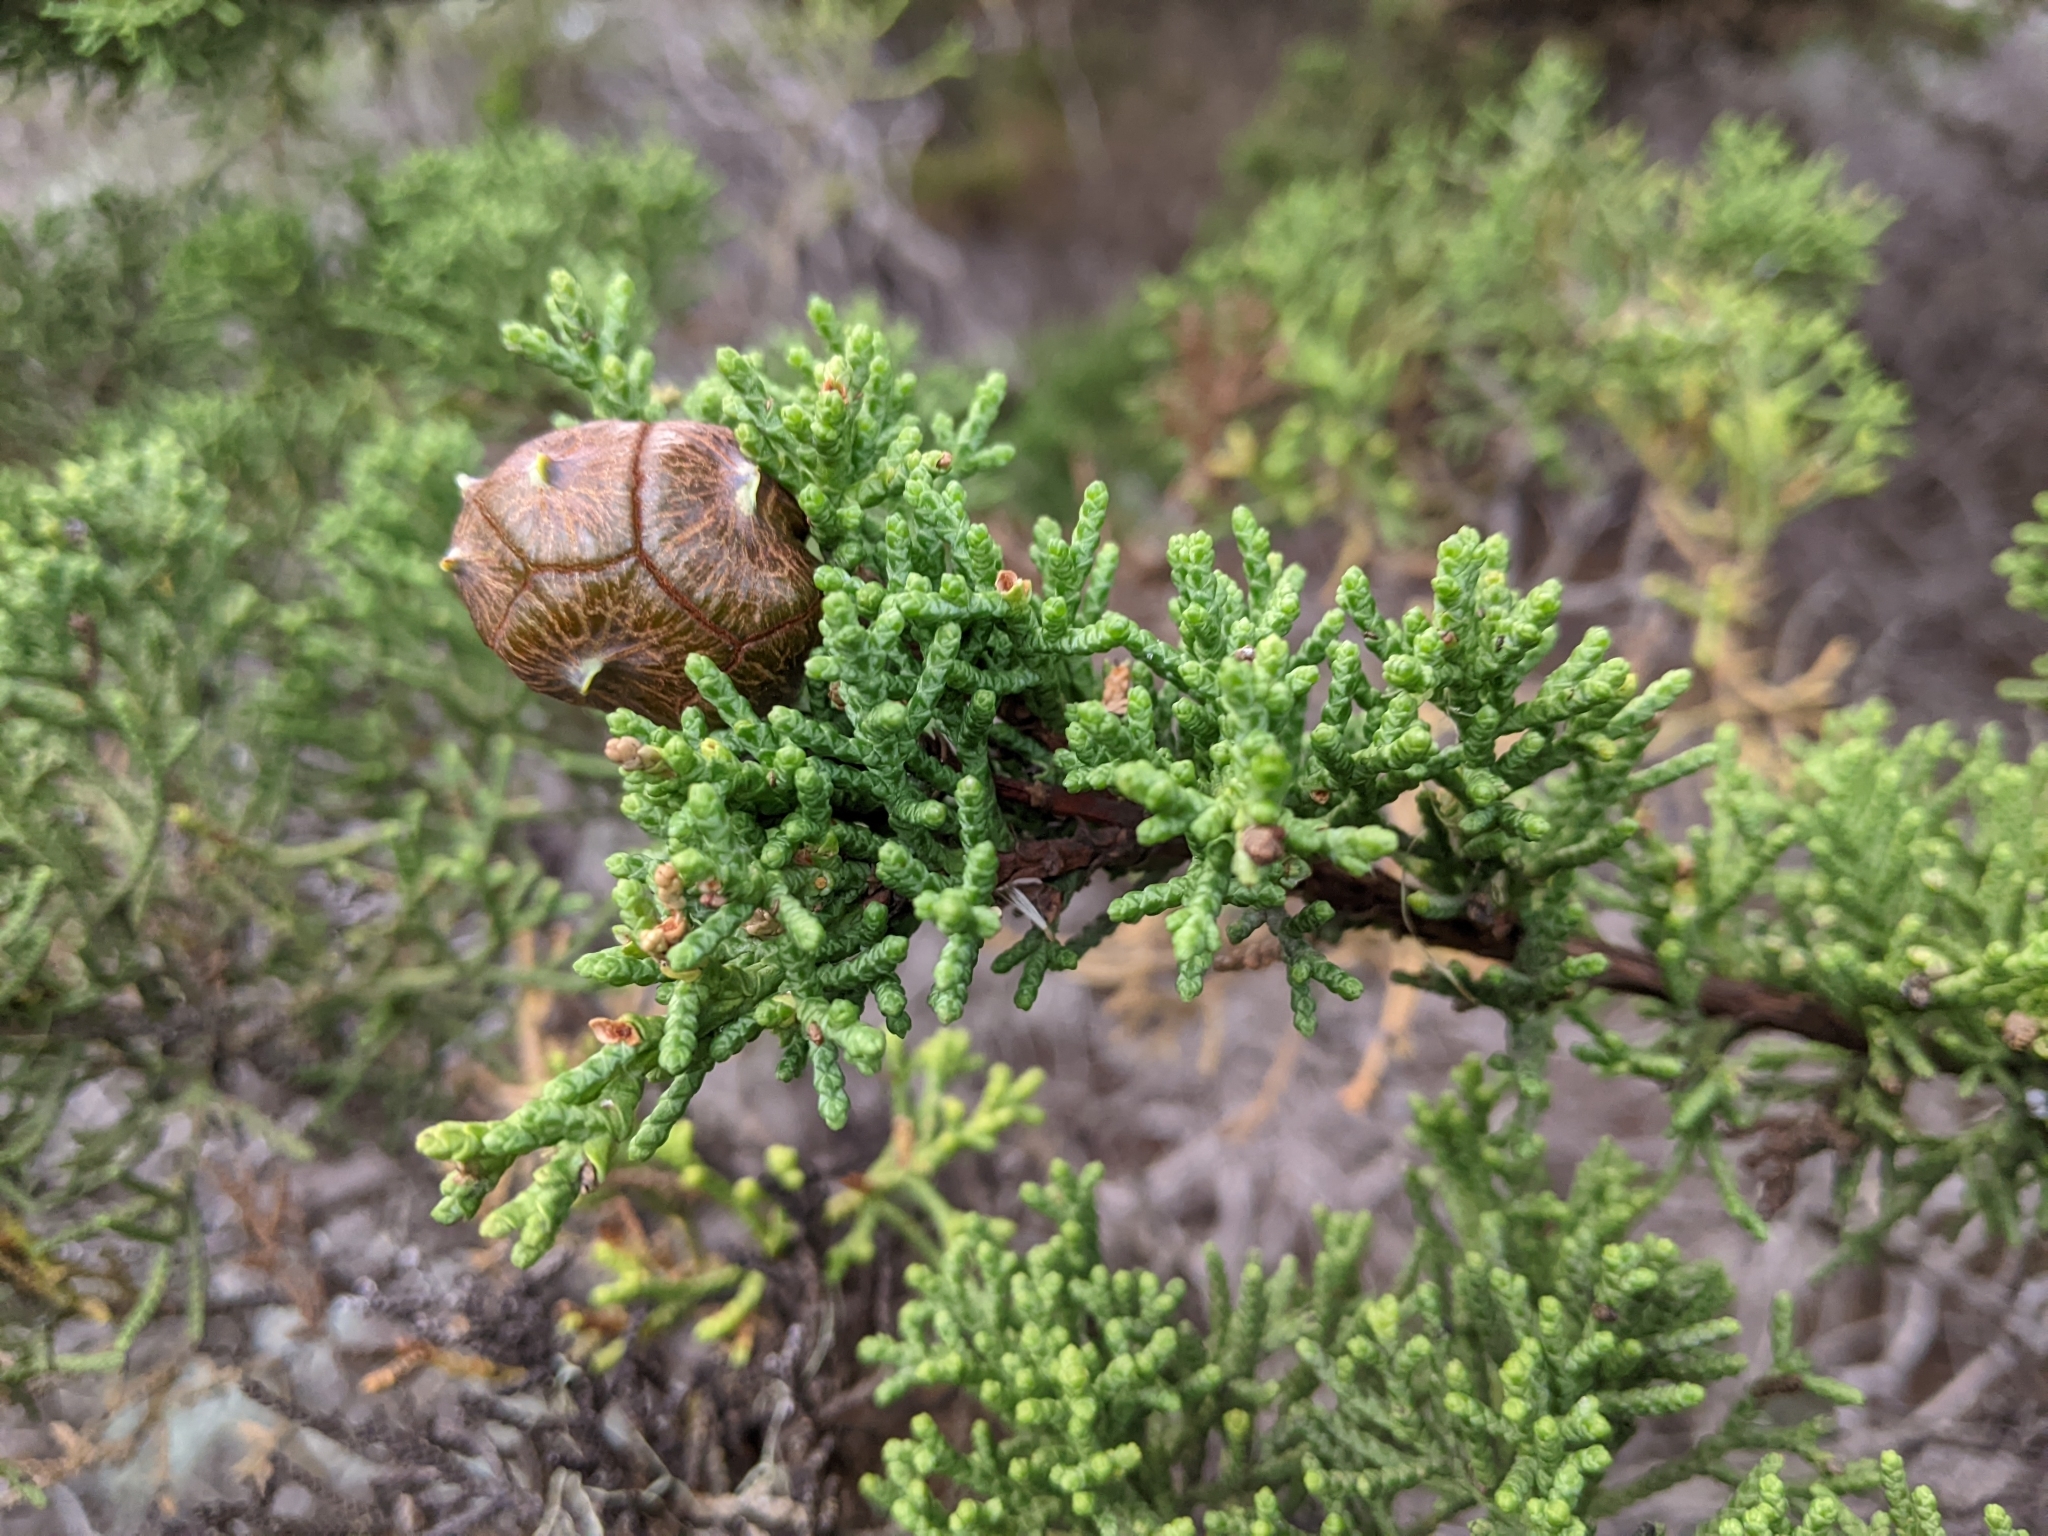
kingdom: Plantae
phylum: Tracheophyta
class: Pinopsida
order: Pinales
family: Cupressaceae
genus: Cupressus
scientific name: Cupressus macrocarpa
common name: Monterey cypress
